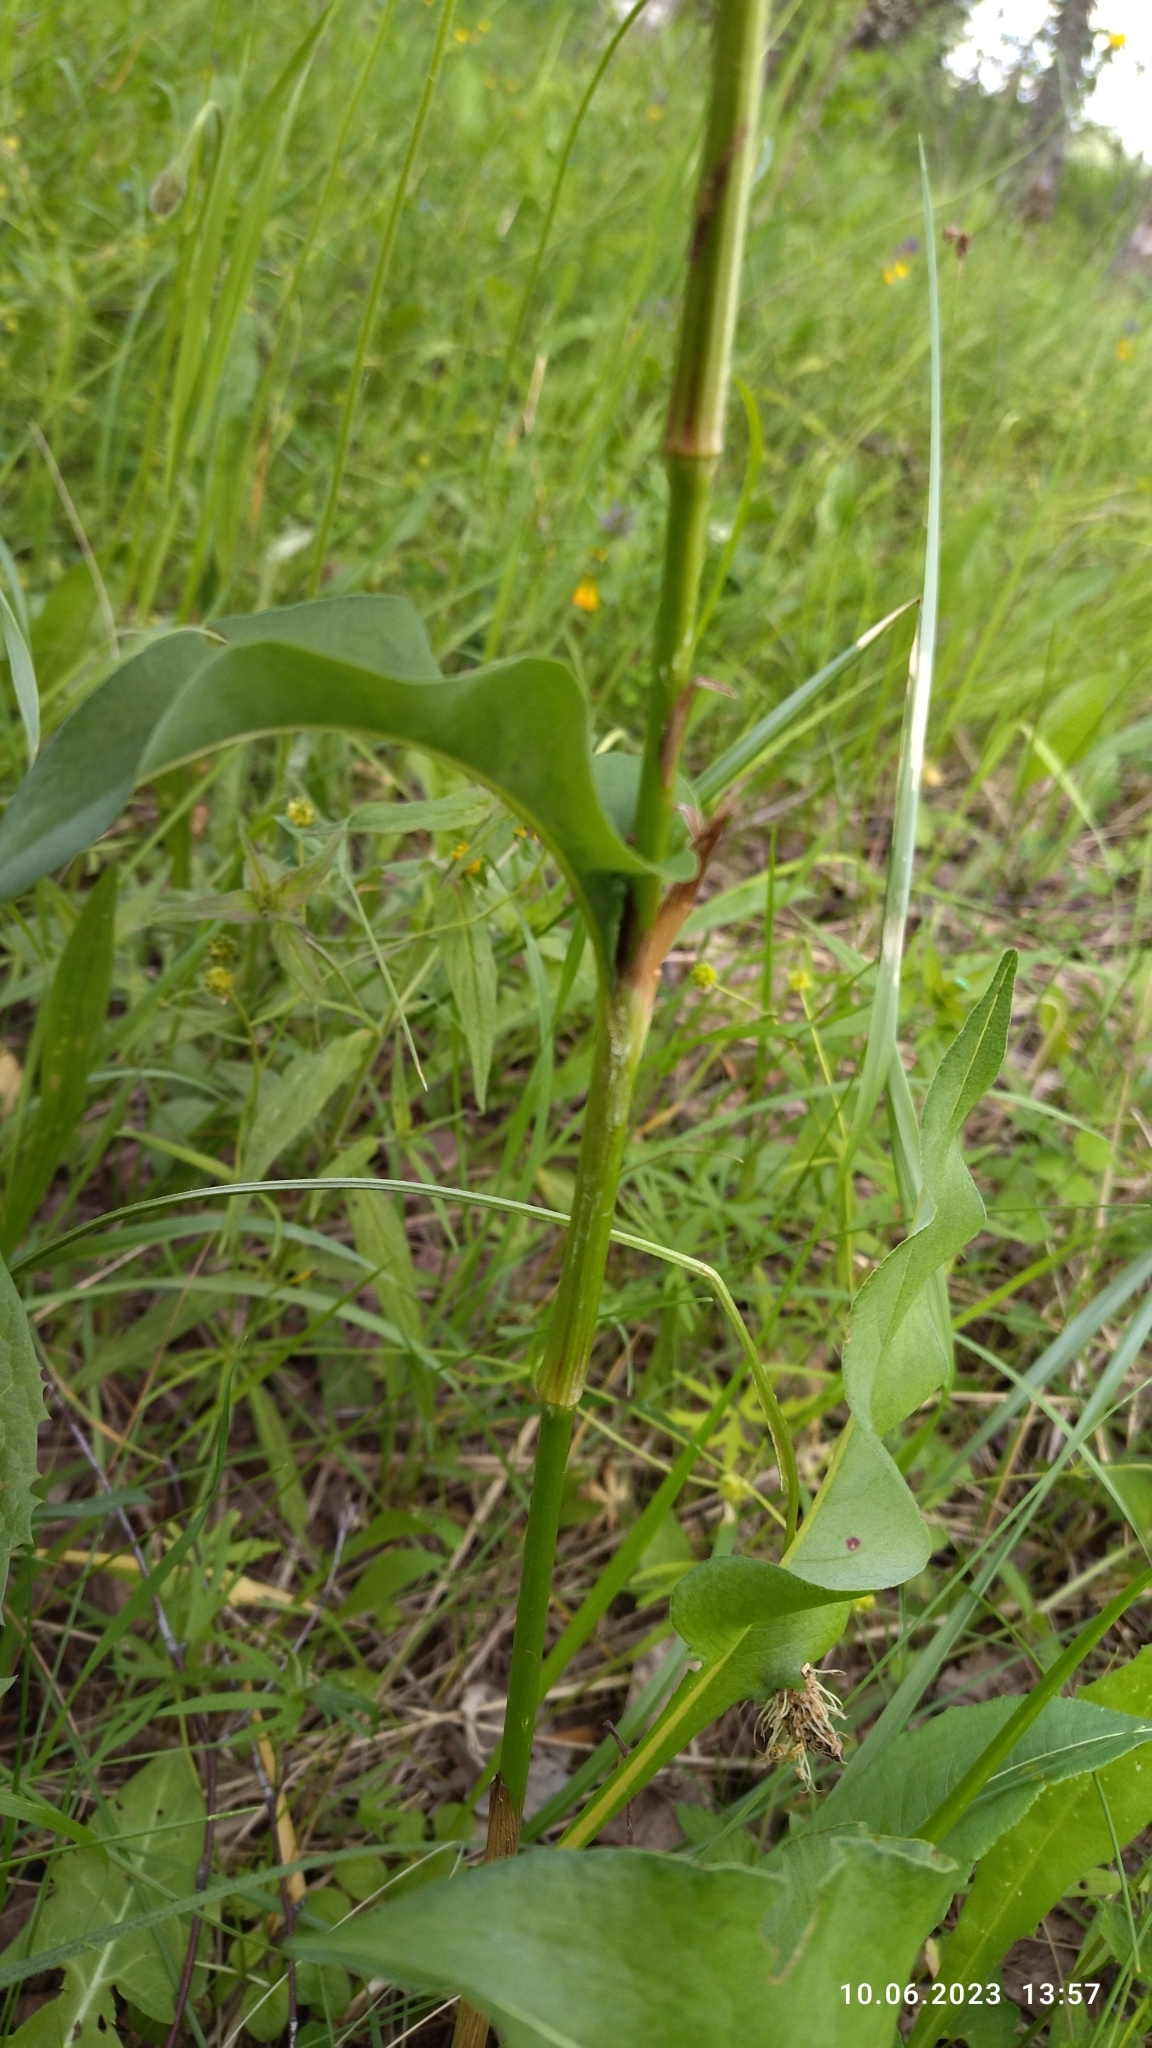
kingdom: Plantae
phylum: Tracheophyta
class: Magnoliopsida
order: Caryophyllales
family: Polygonaceae
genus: Bistorta
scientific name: Bistorta officinalis
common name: Common bistort
